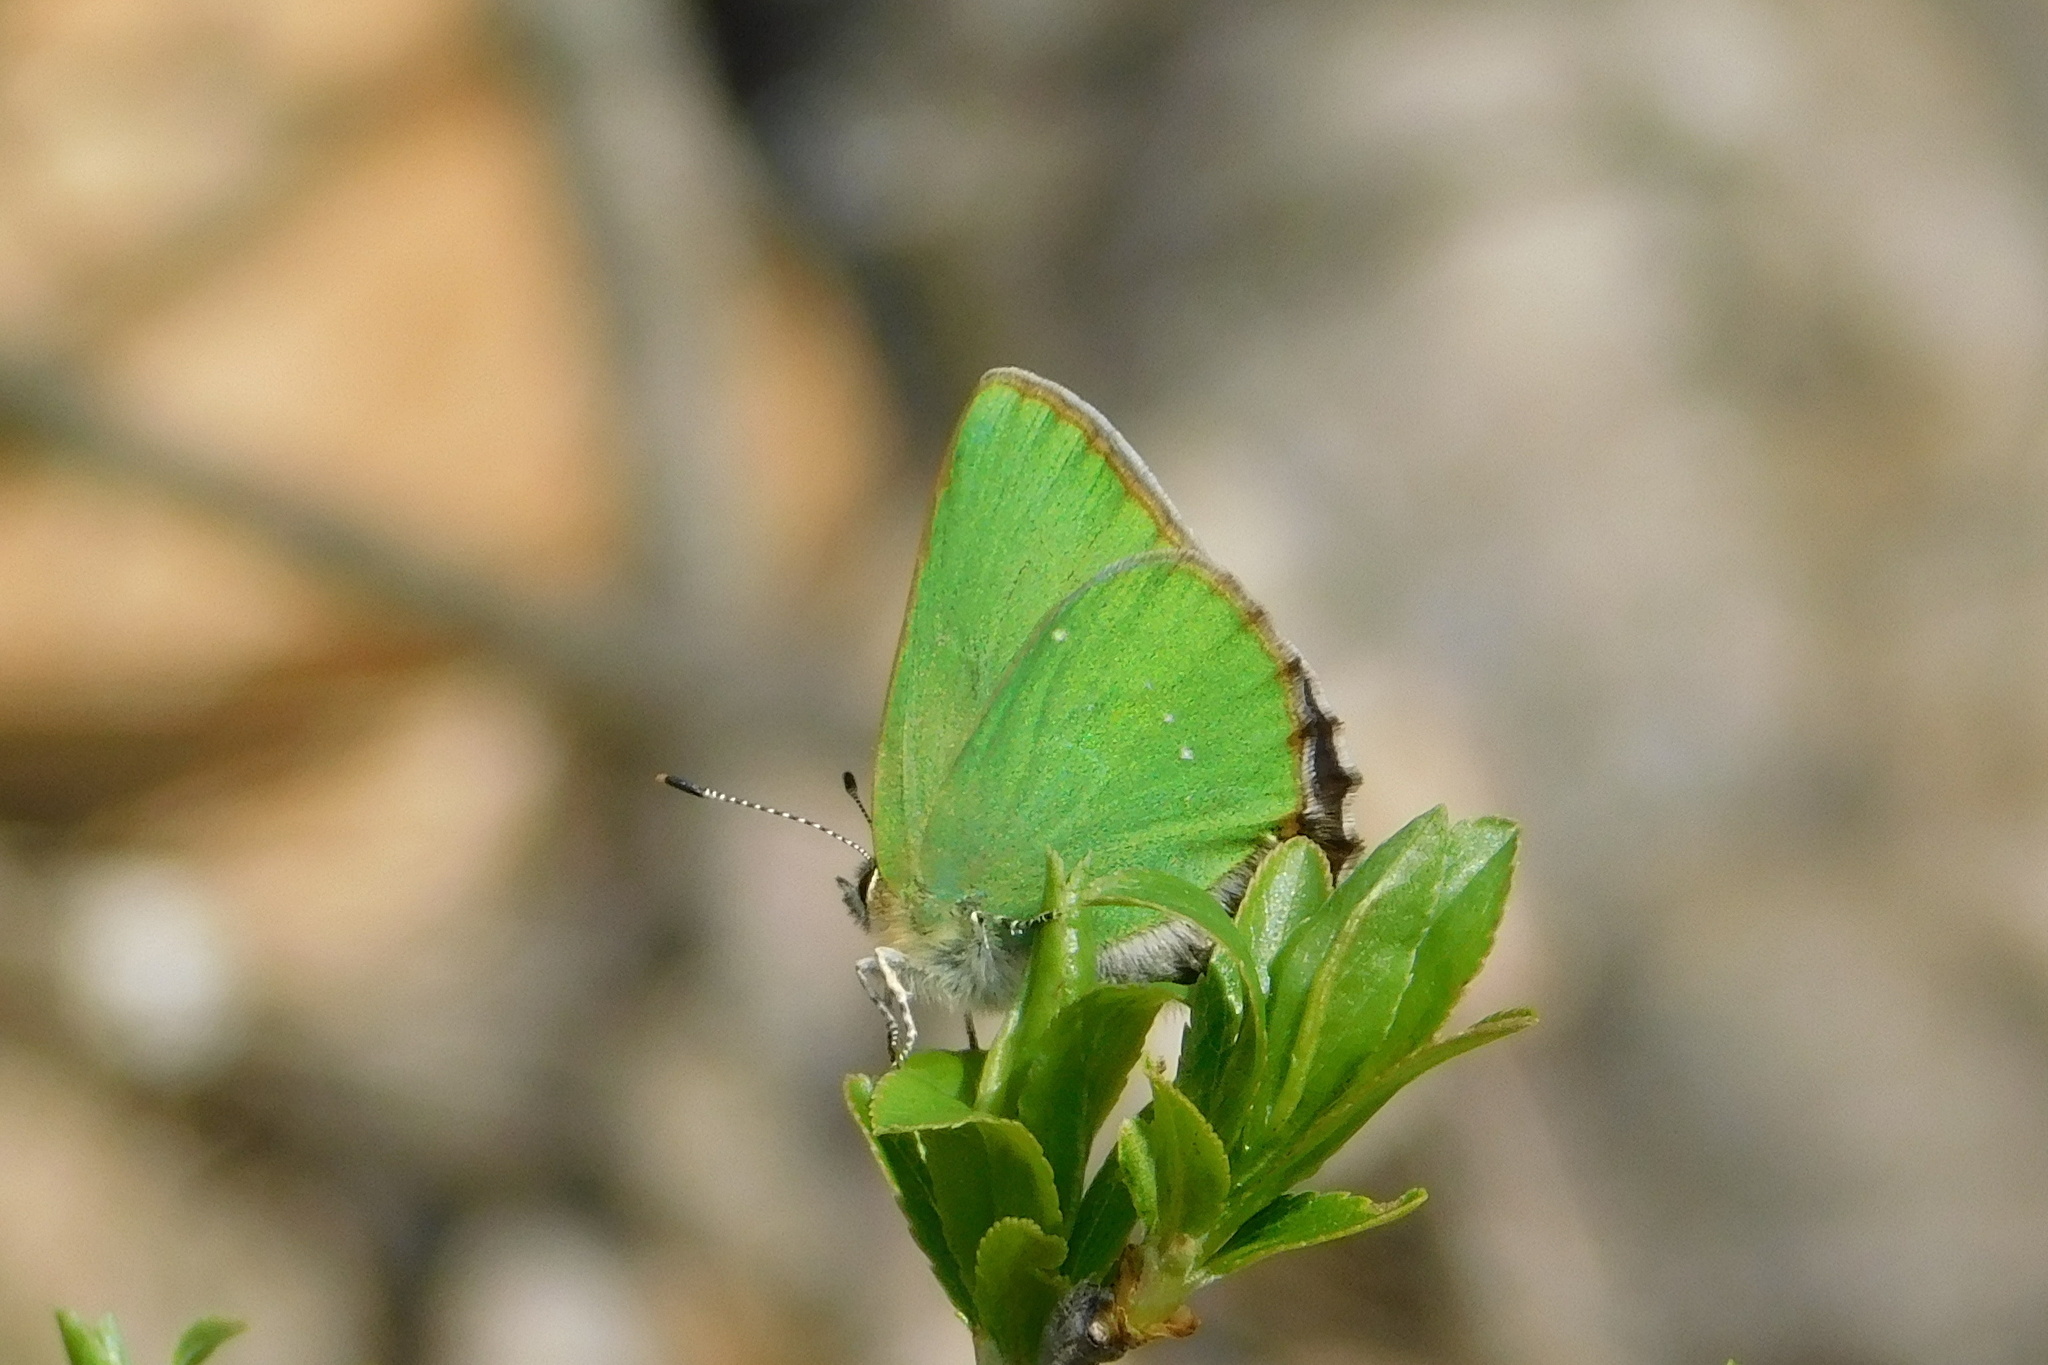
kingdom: Animalia
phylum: Arthropoda
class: Insecta
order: Lepidoptera
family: Lycaenidae
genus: Callophrys
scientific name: Callophrys rubi
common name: Green hairstreak
